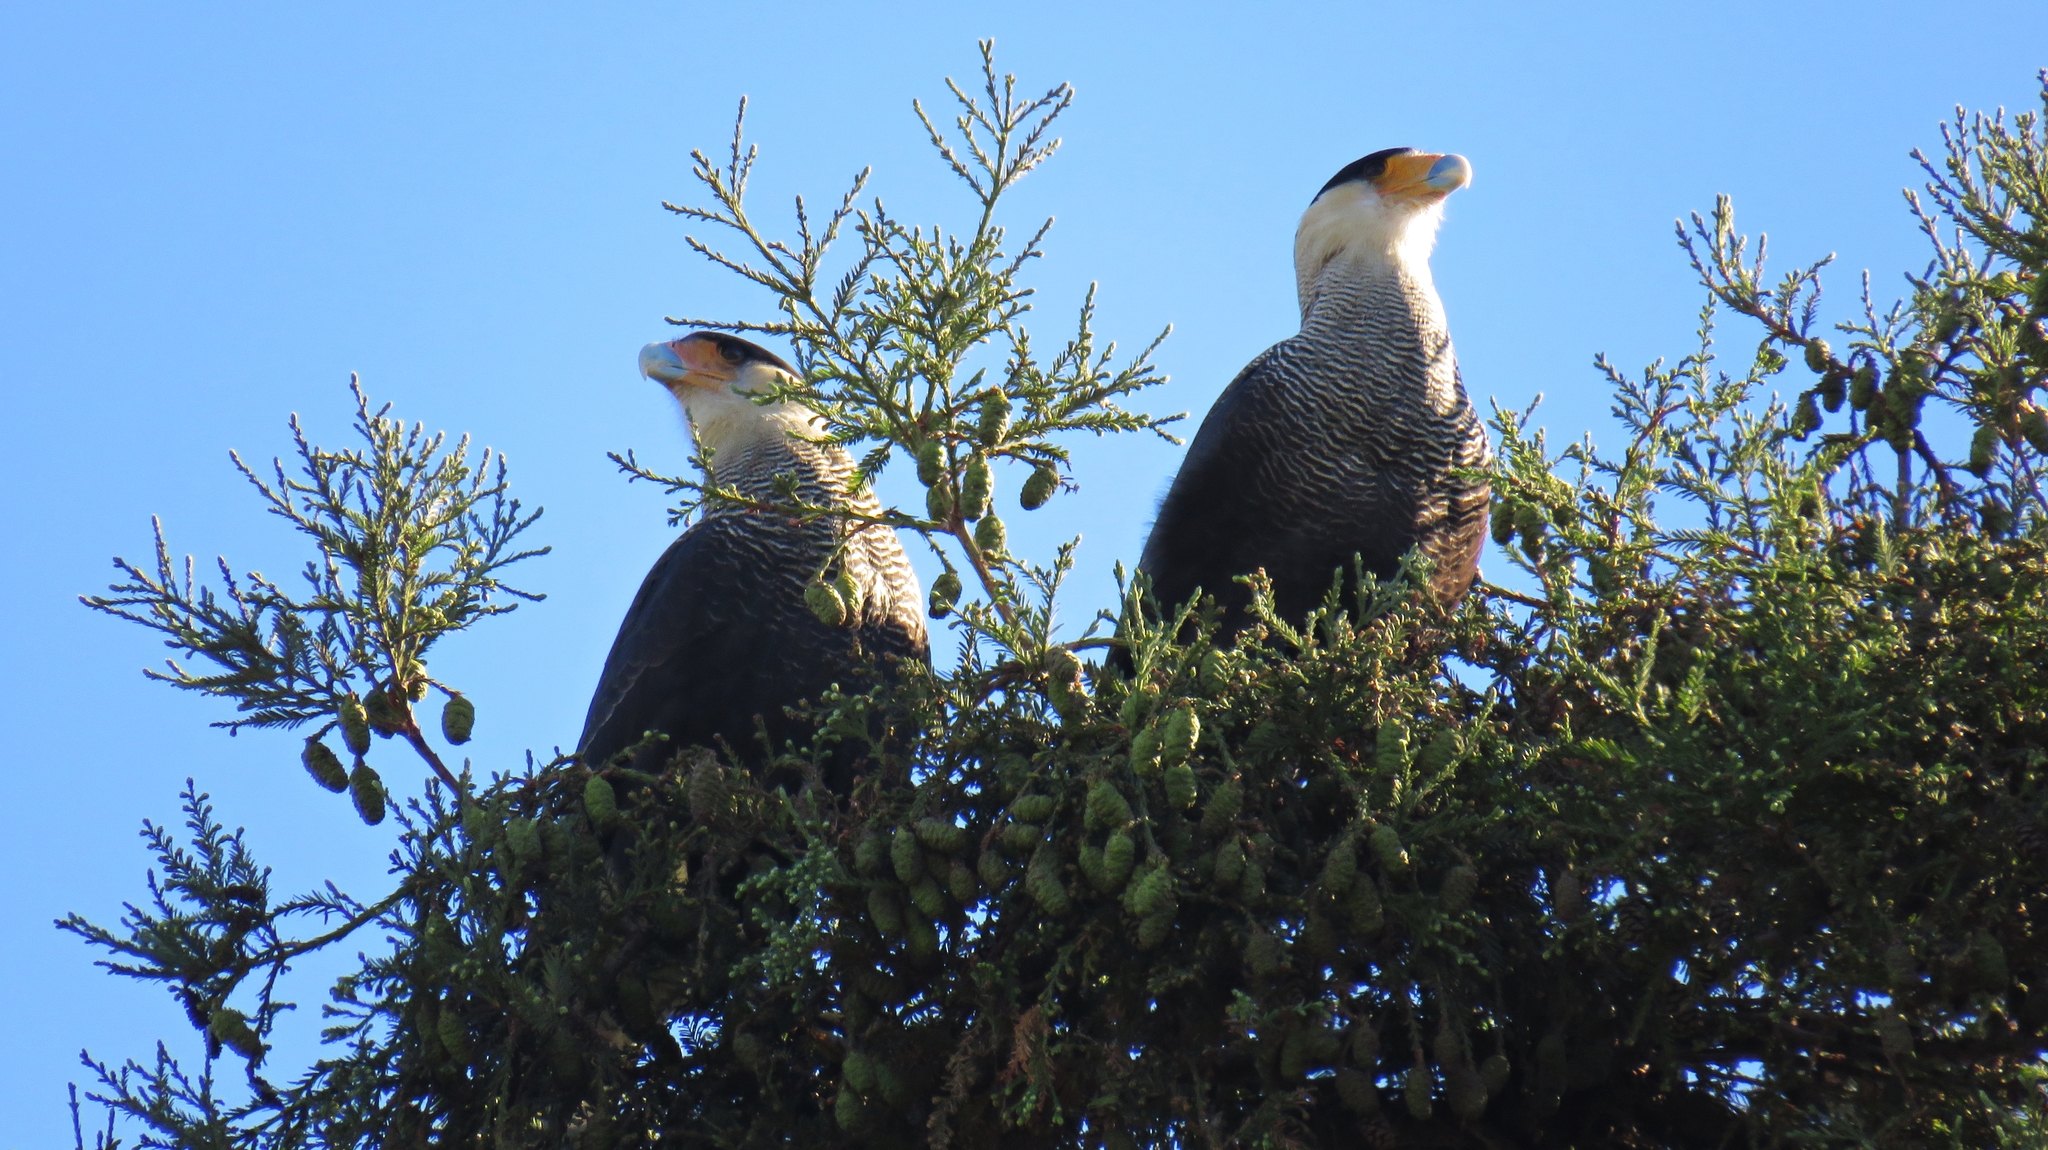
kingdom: Animalia
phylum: Chordata
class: Aves
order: Falconiformes
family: Falconidae
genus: Caracara
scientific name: Caracara plancus
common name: Southern caracara
